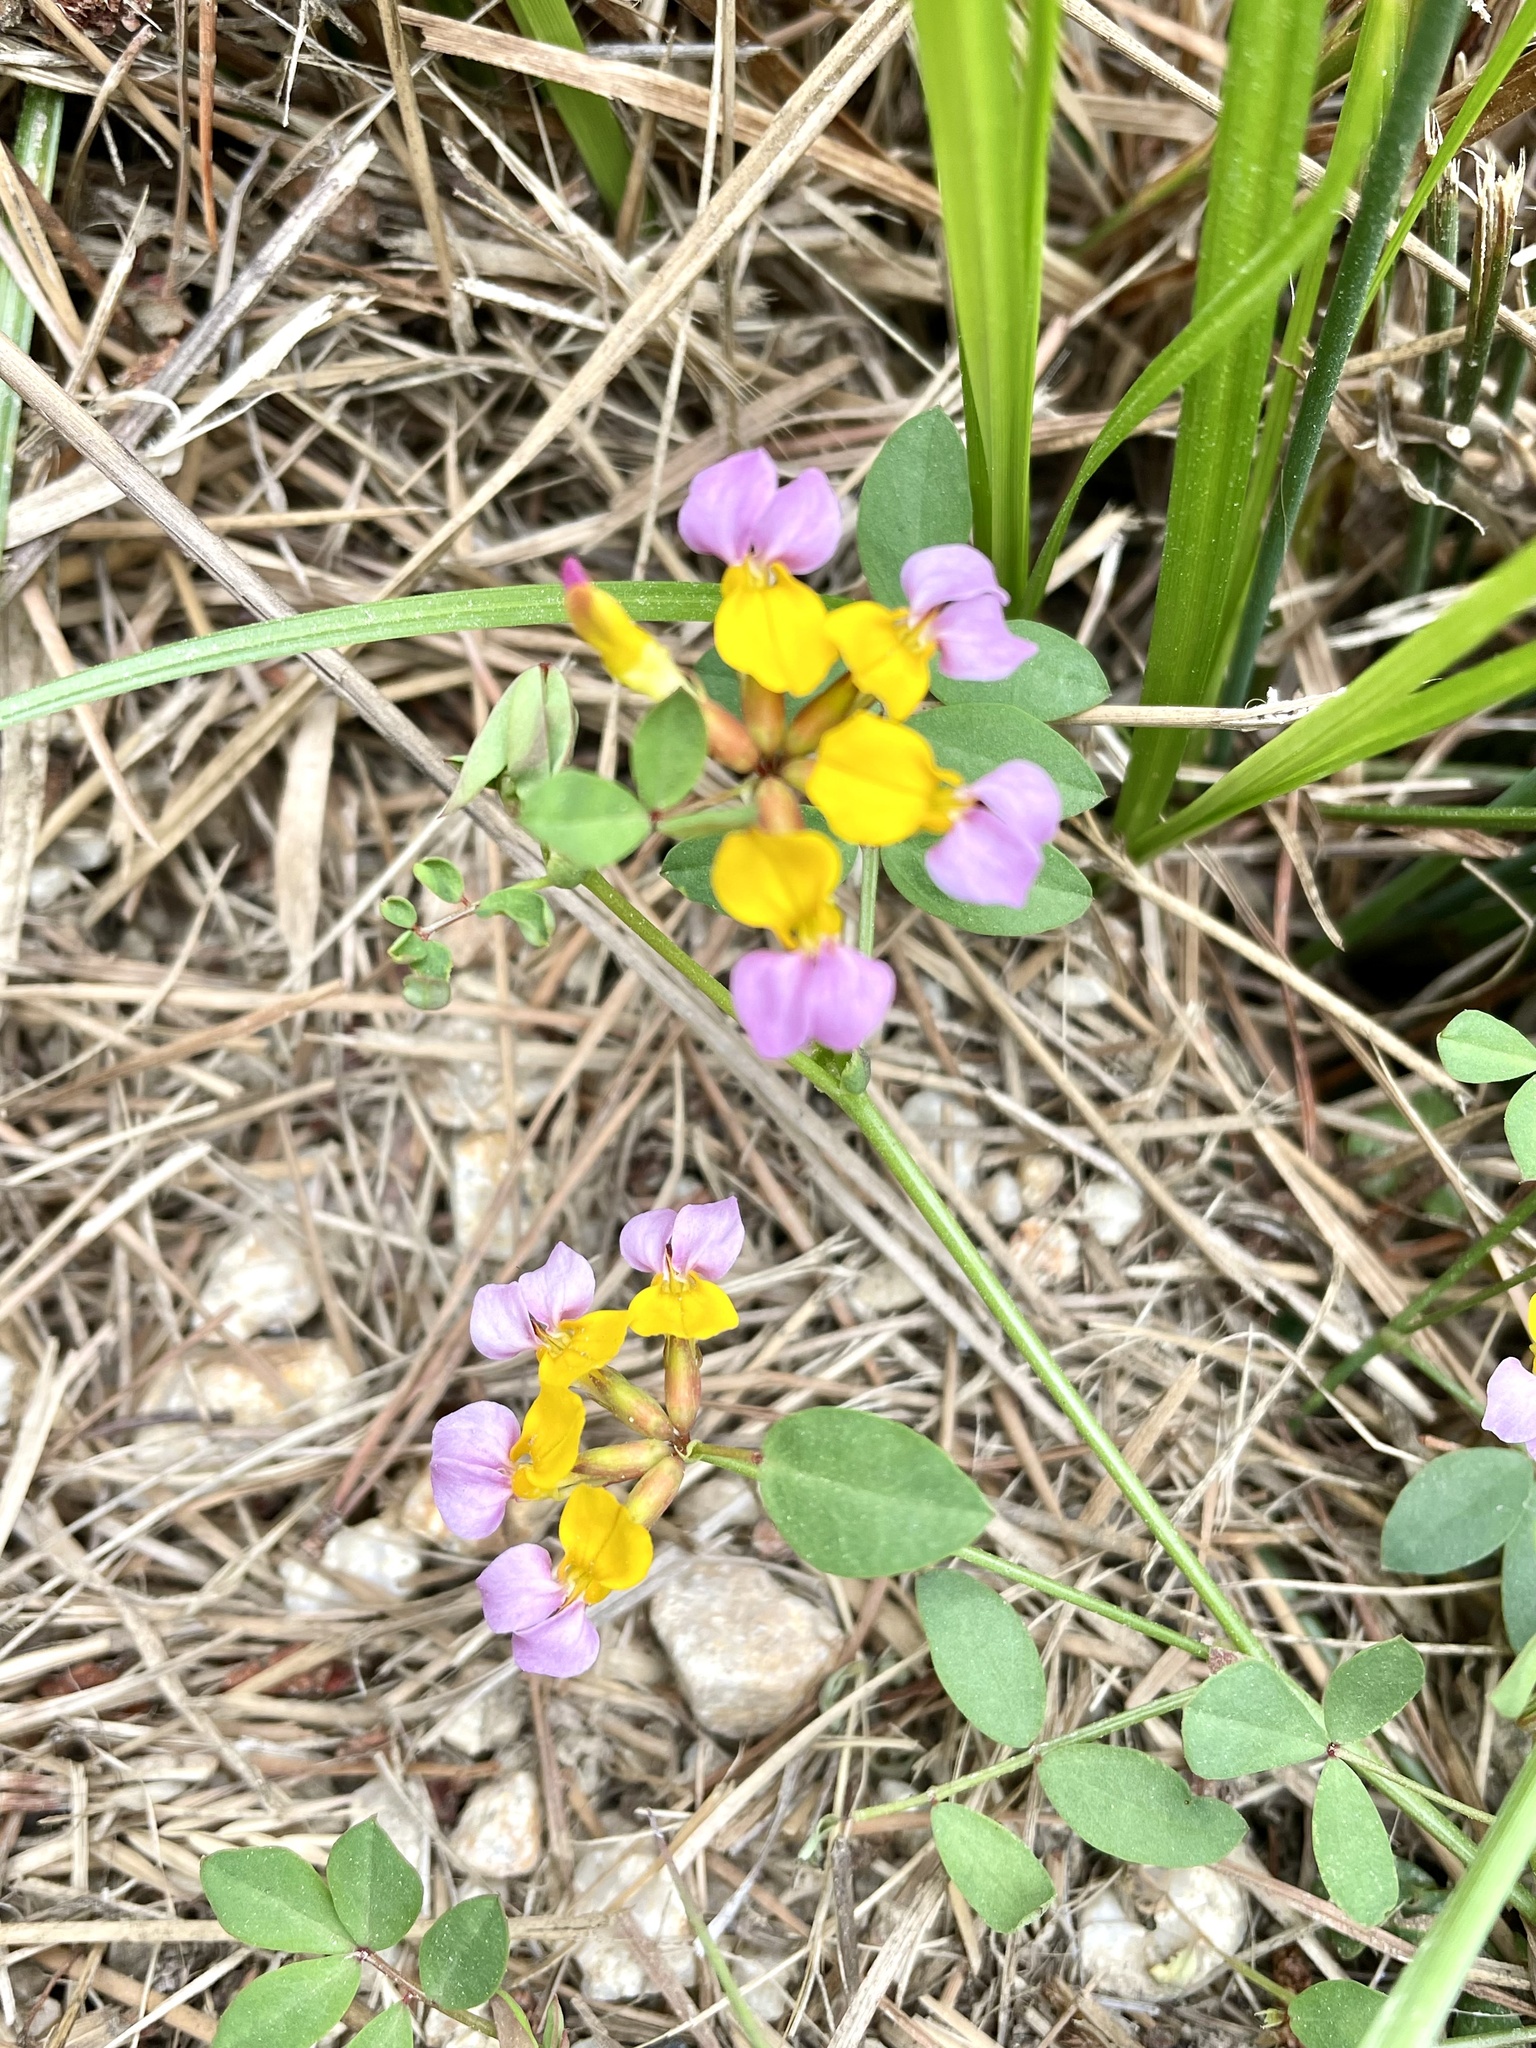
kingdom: Plantae
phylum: Tracheophyta
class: Magnoliopsida
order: Fabales
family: Fabaceae
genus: Hosackia
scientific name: Hosackia gracilis
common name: Seaside bird's-foot lotus
